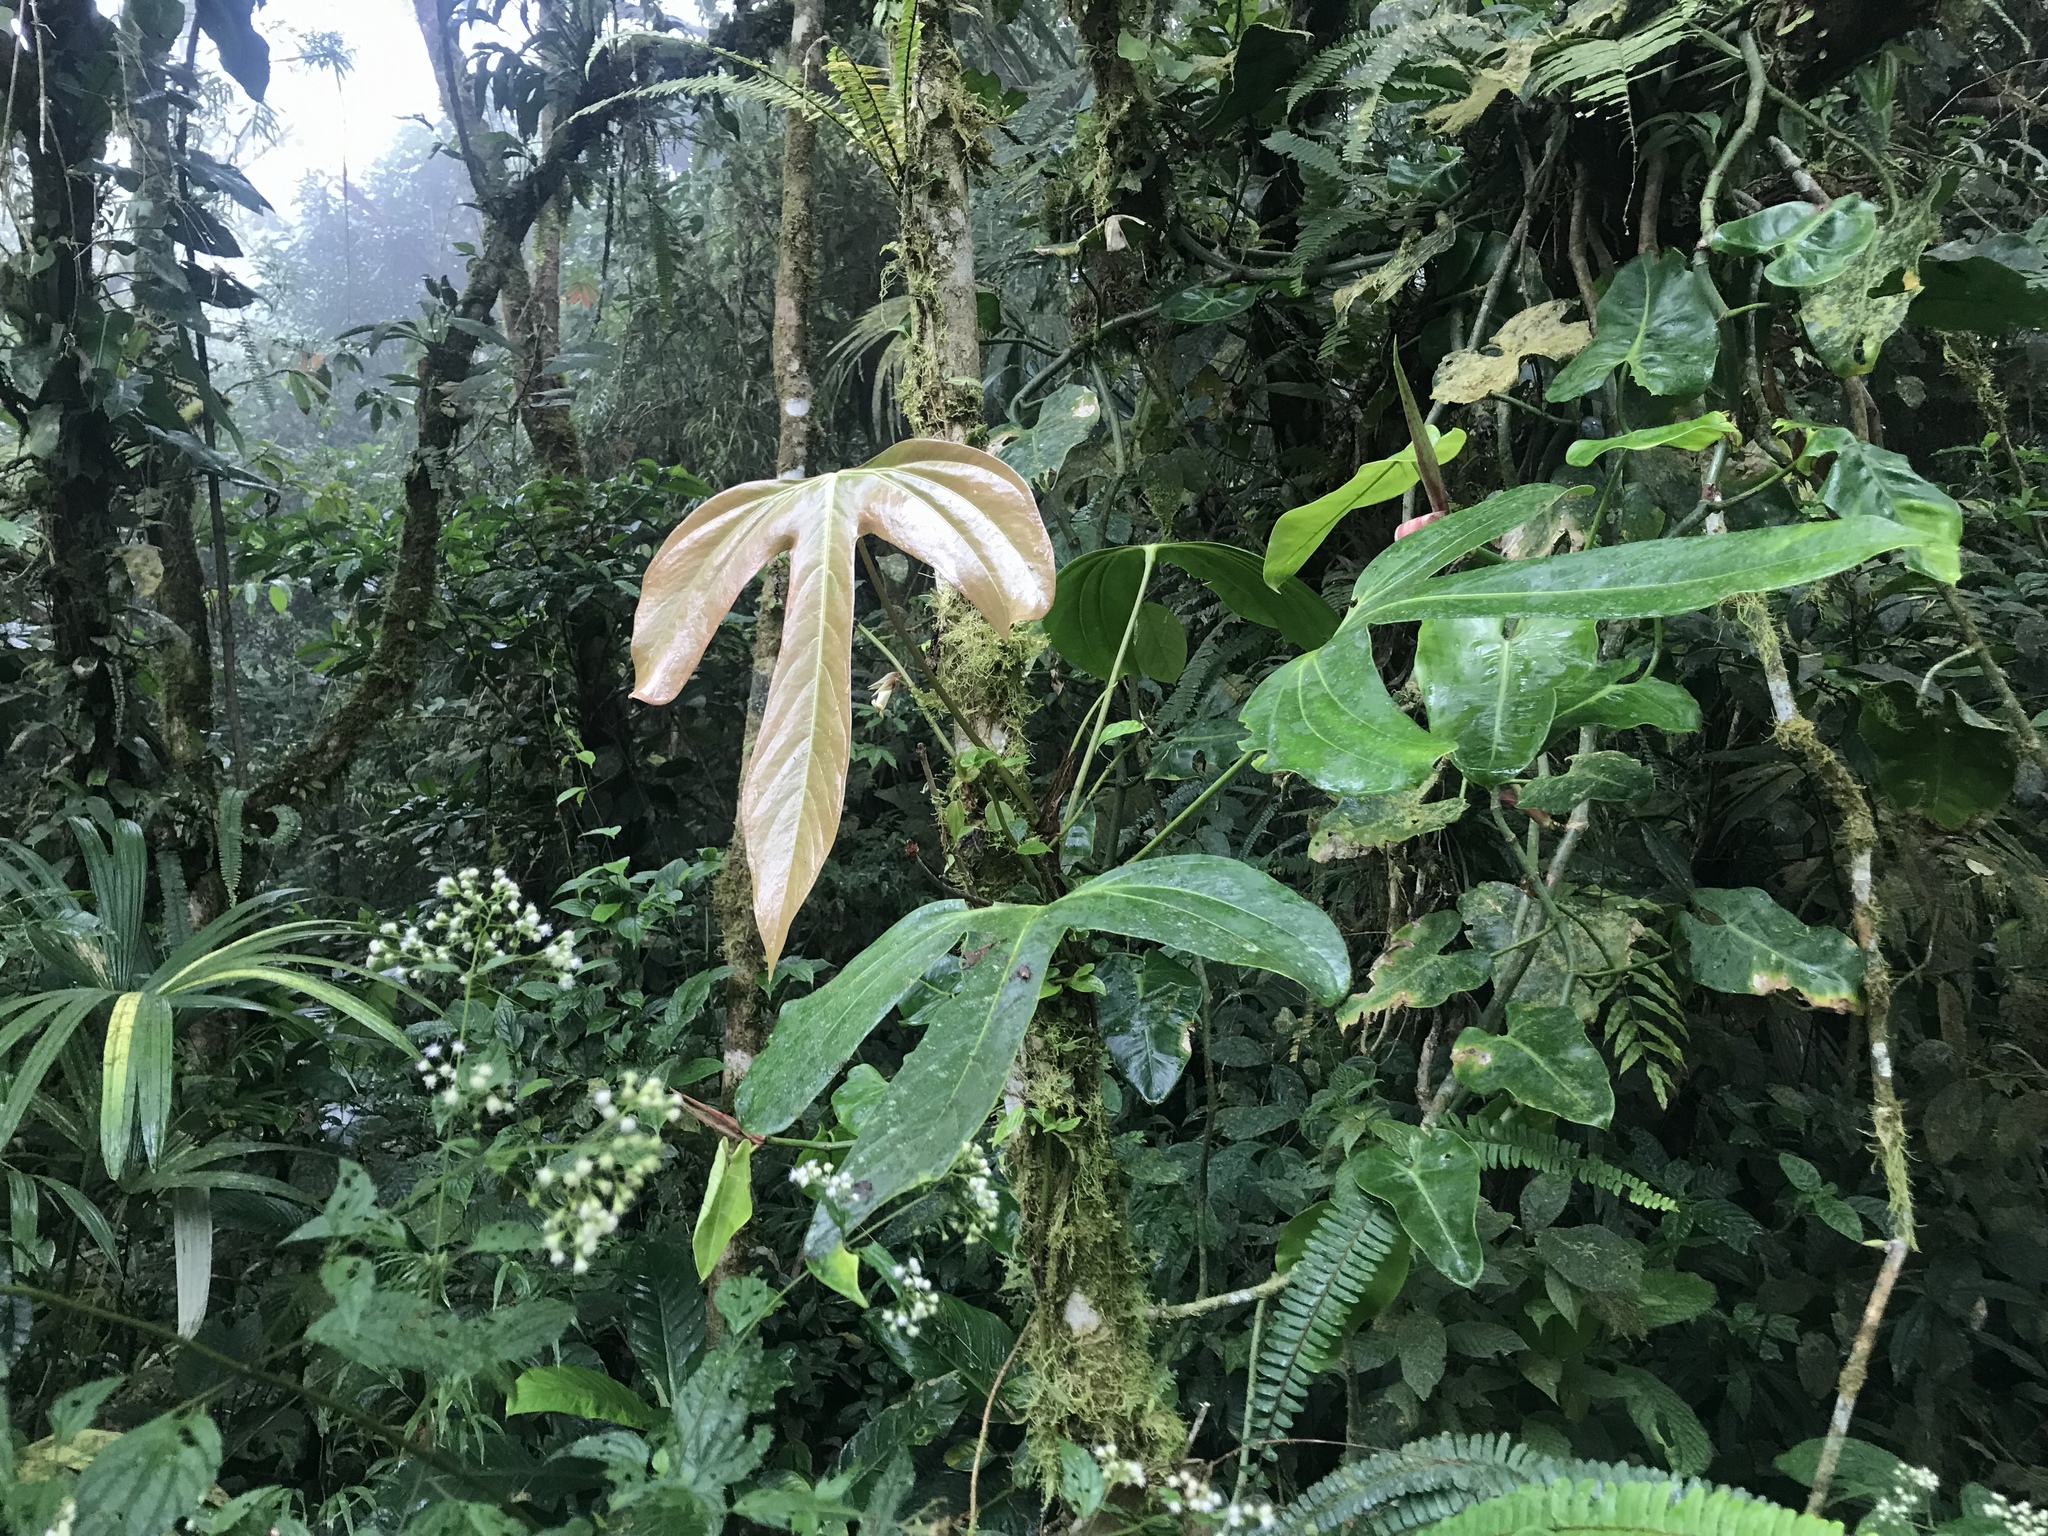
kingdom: Plantae
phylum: Tracheophyta
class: Liliopsida
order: Alismatales
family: Araceae
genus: Anthurium
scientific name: Anthurium rotundatum
